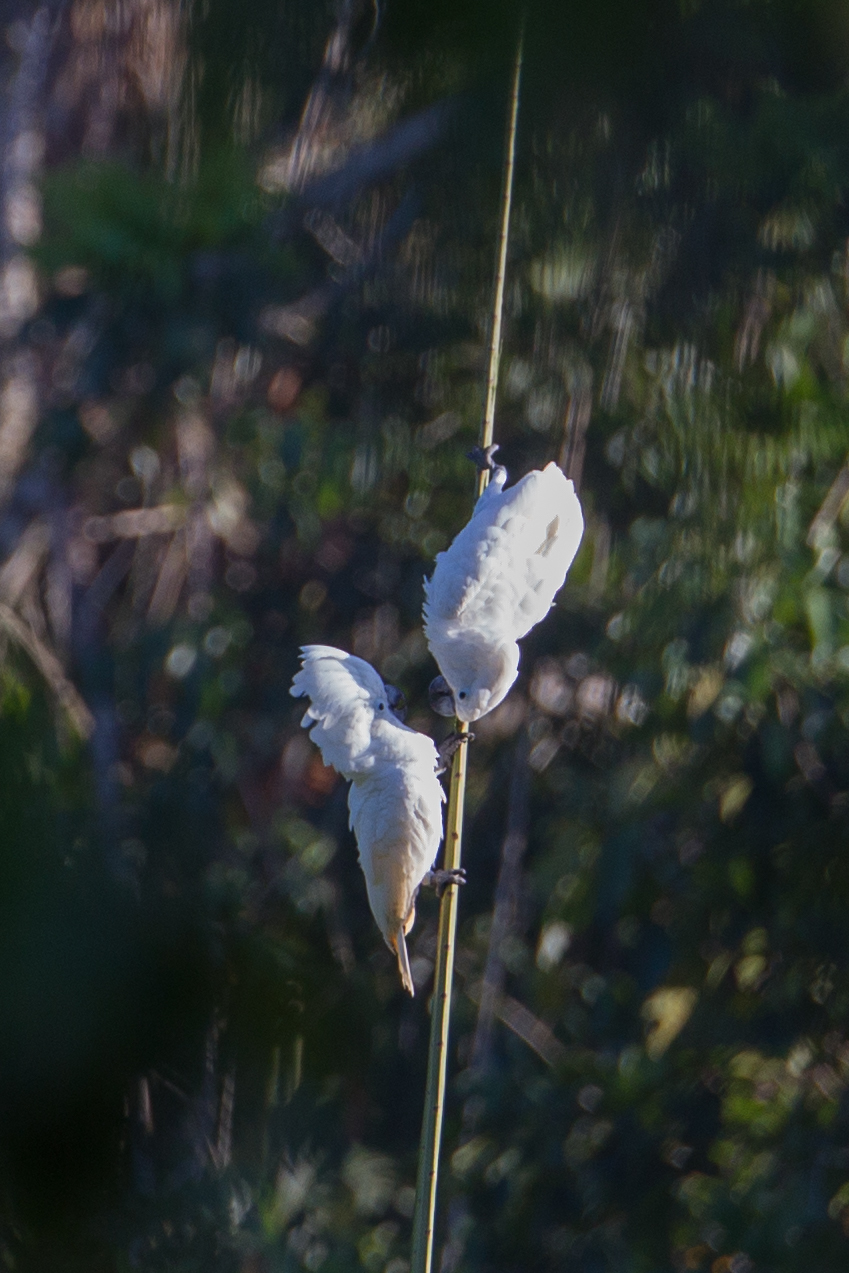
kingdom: Animalia
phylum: Chordata
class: Aves
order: Psittaciformes
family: Psittacidae
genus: Cacatua
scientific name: Cacatua alba
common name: White cockatoo
